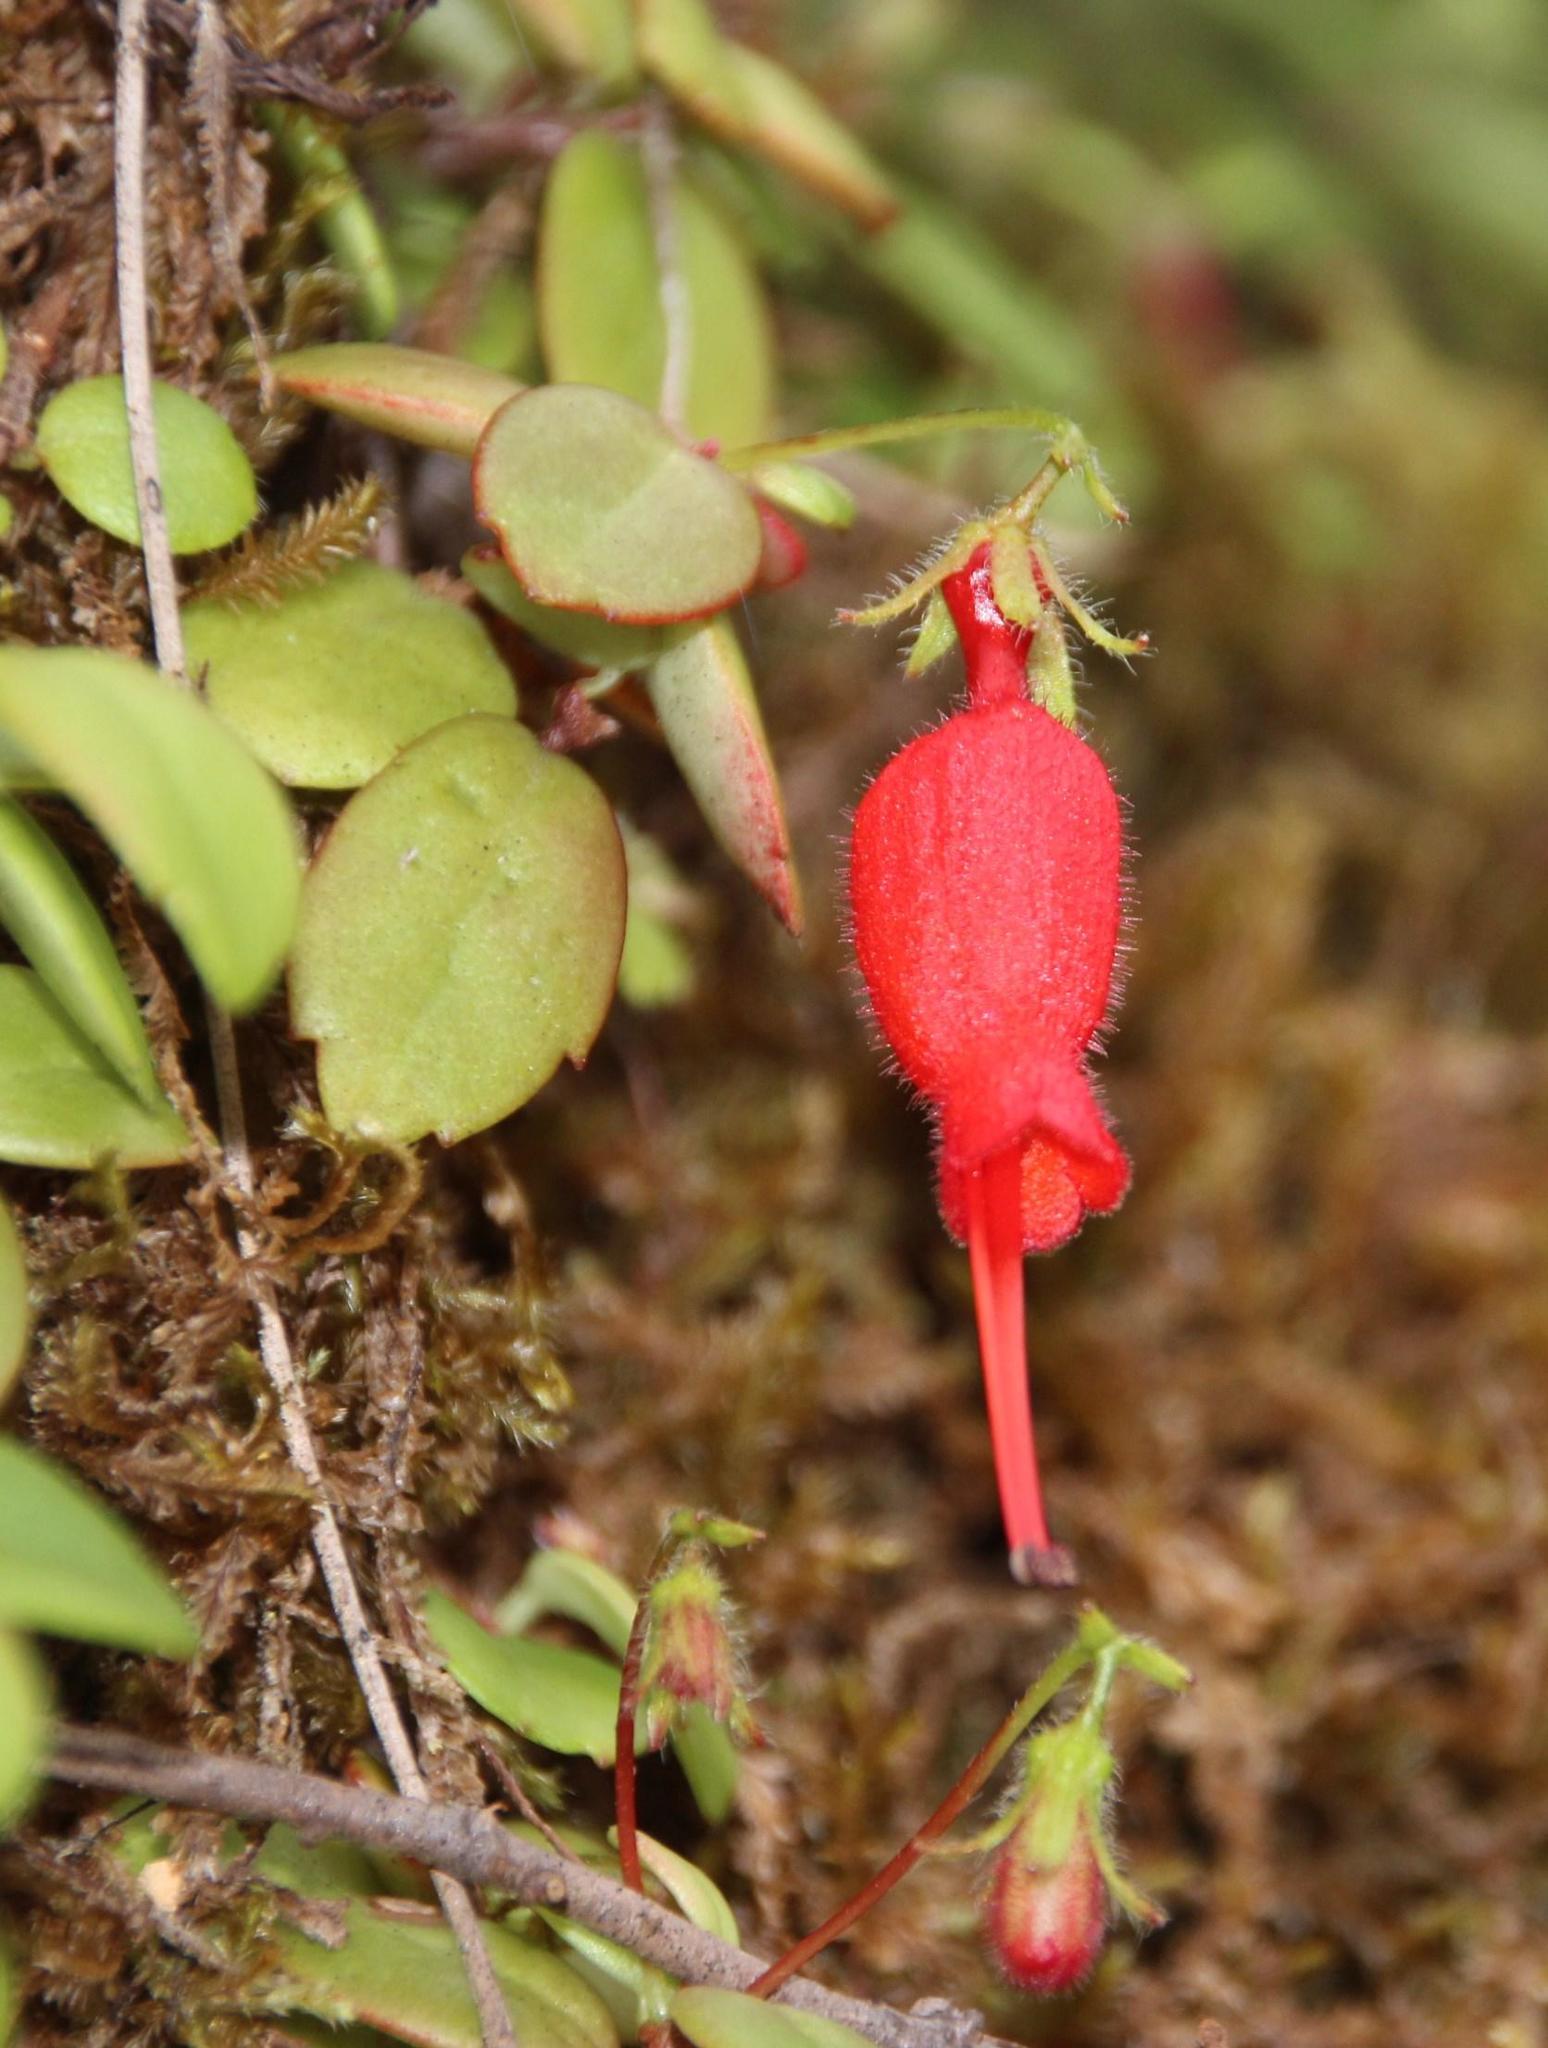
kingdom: Plantae
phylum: Tracheophyta
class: Magnoliopsida
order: Lamiales
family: Gesneriaceae
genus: Sarmienta
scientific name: Sarmienta scandens
